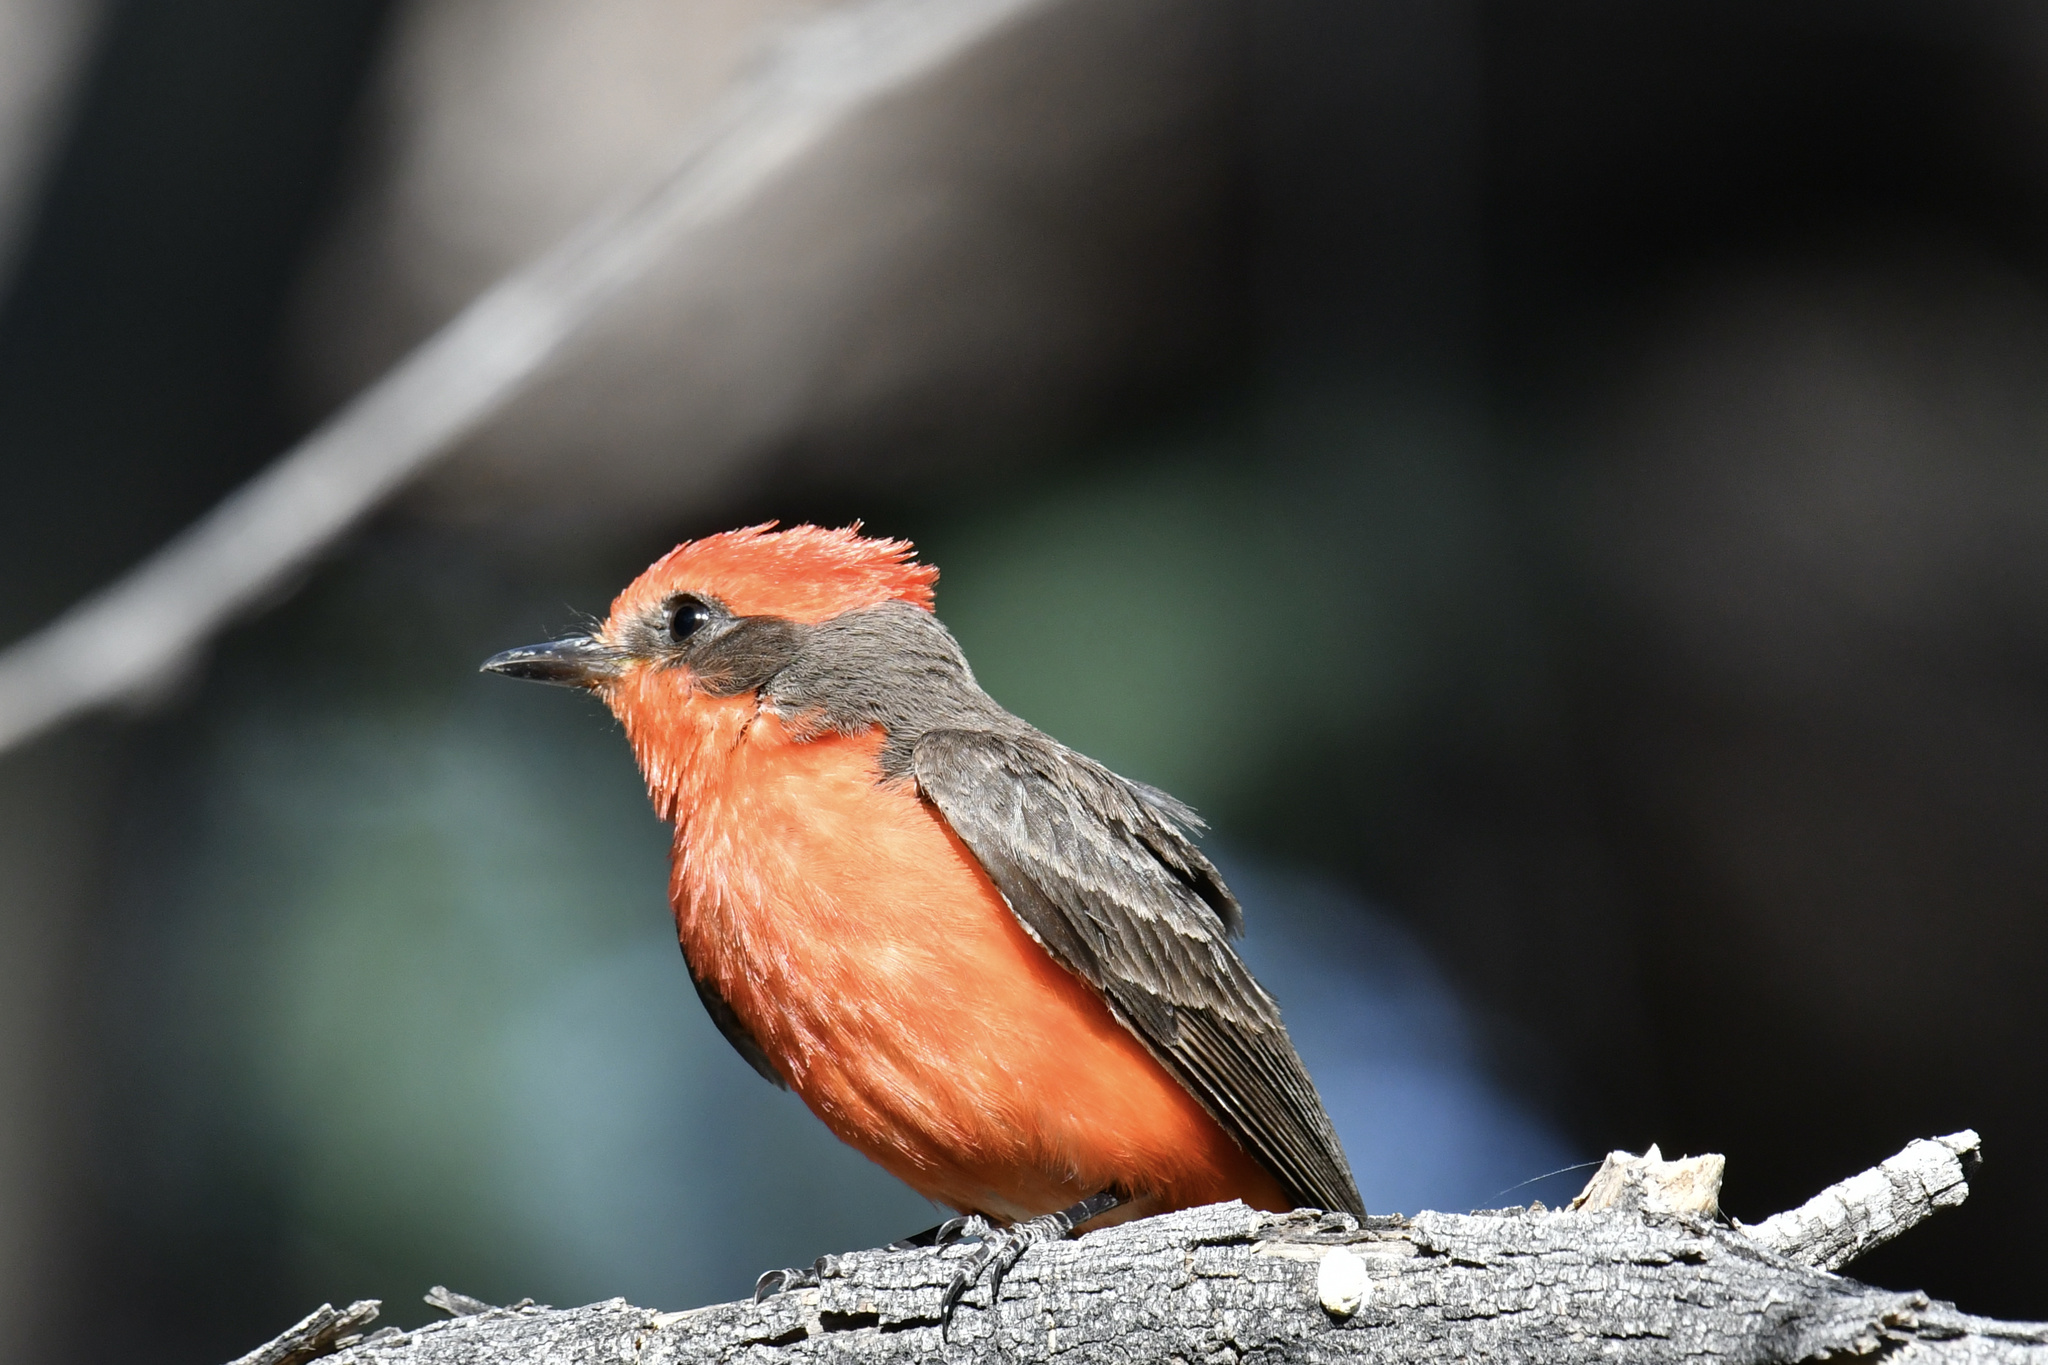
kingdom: Animalia
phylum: Chordata
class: Aves
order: Passeriformes
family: Tyrannidae
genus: Pyrocephalus
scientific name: Pyrocephalus rubinus
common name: Vermilion flycatcher
